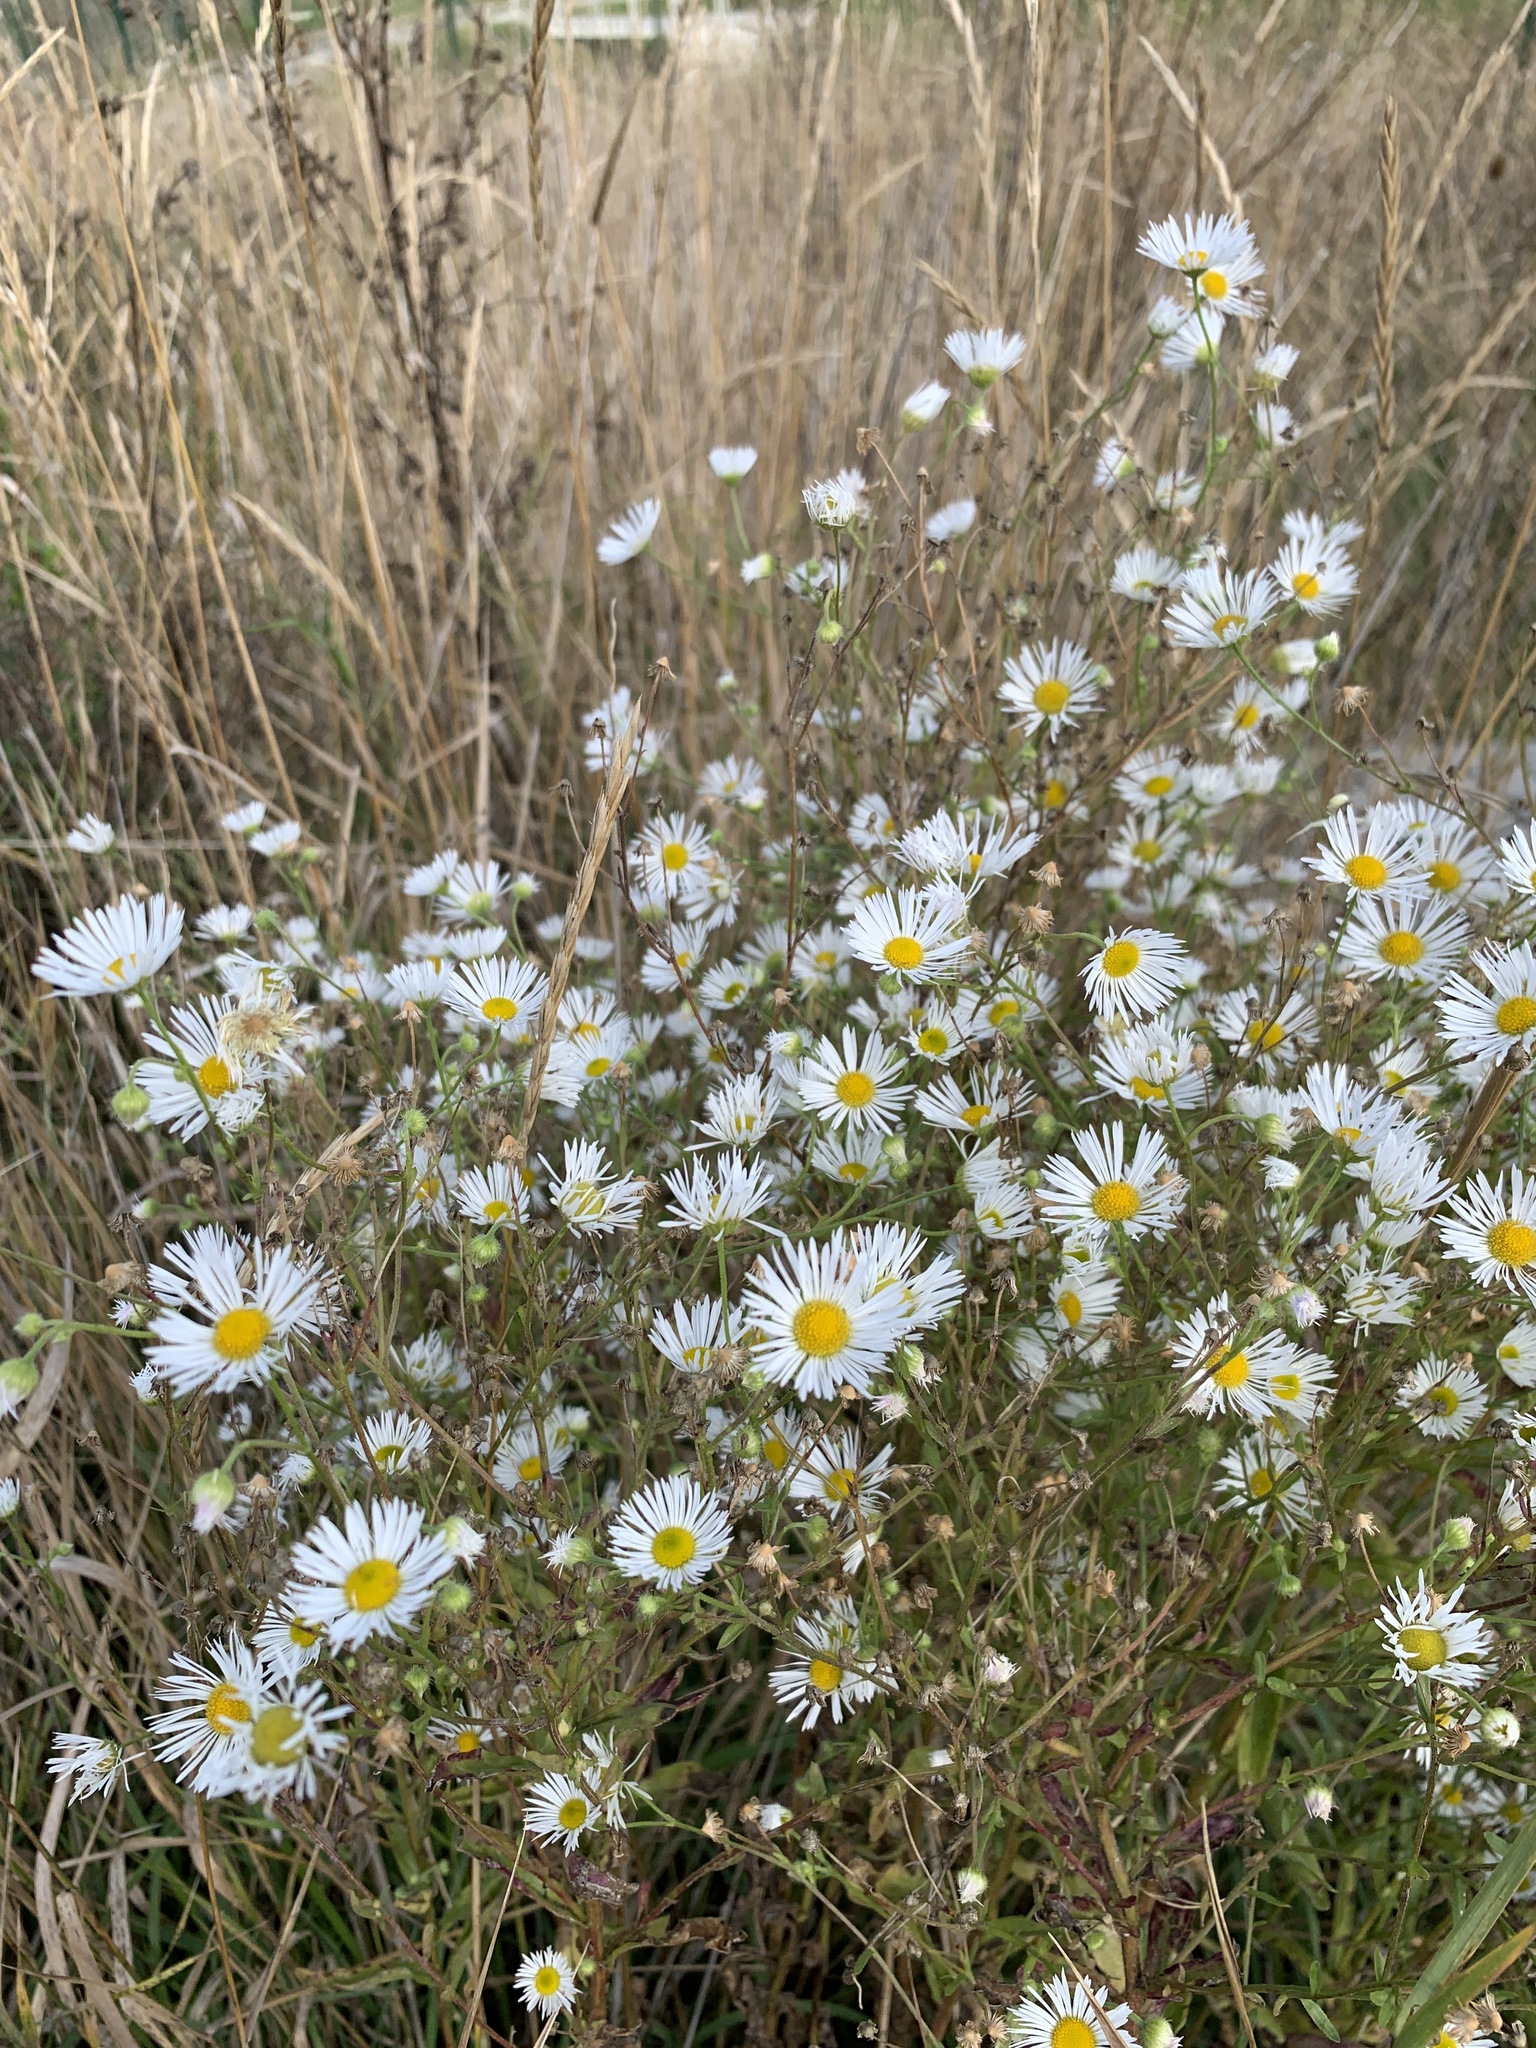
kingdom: Plantae
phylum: Tracheophyta
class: Magnoliopsida
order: Asterales
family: Asteraceae
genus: Erigeron
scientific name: Erigeron annuus
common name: Tall fleabane
